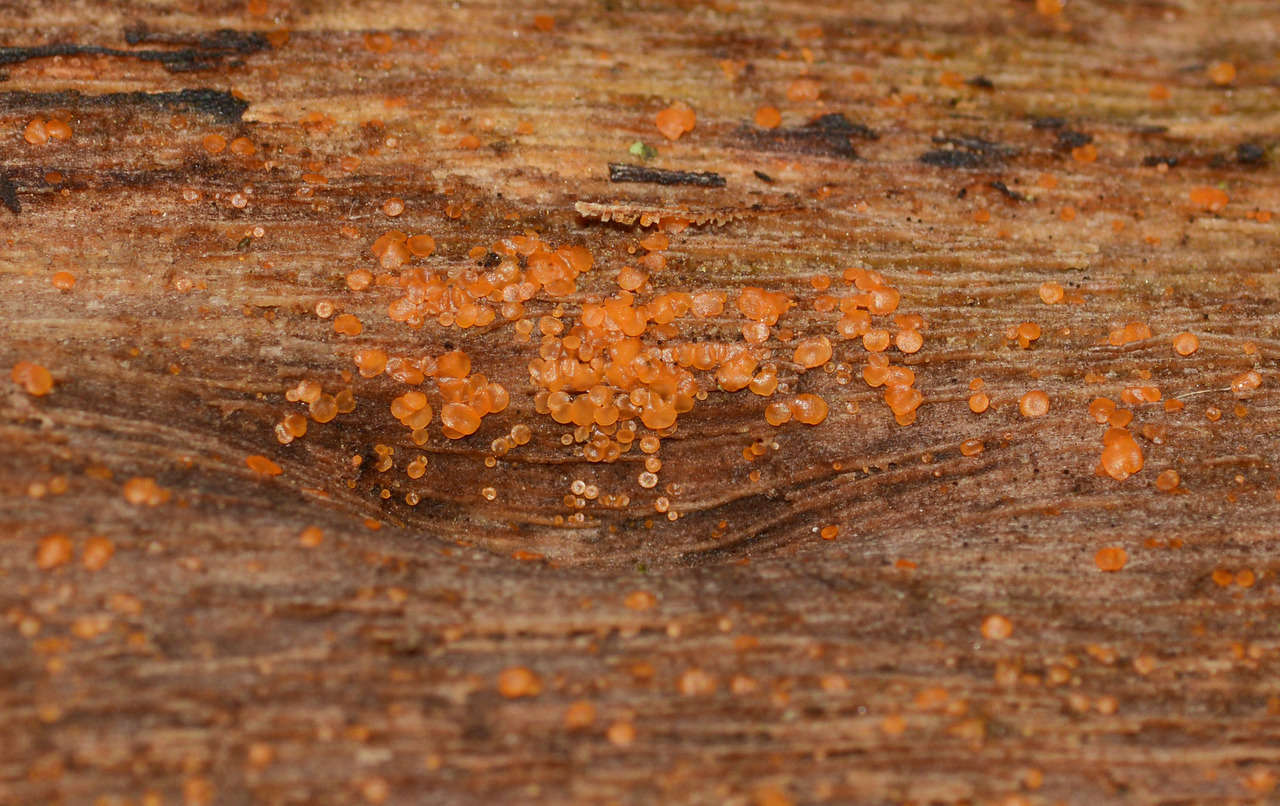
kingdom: Fungi
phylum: Ascomycota
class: Orbiliomycetes
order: Orbiliales
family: Orbiliaceae
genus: Orbilia
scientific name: Orbilia
